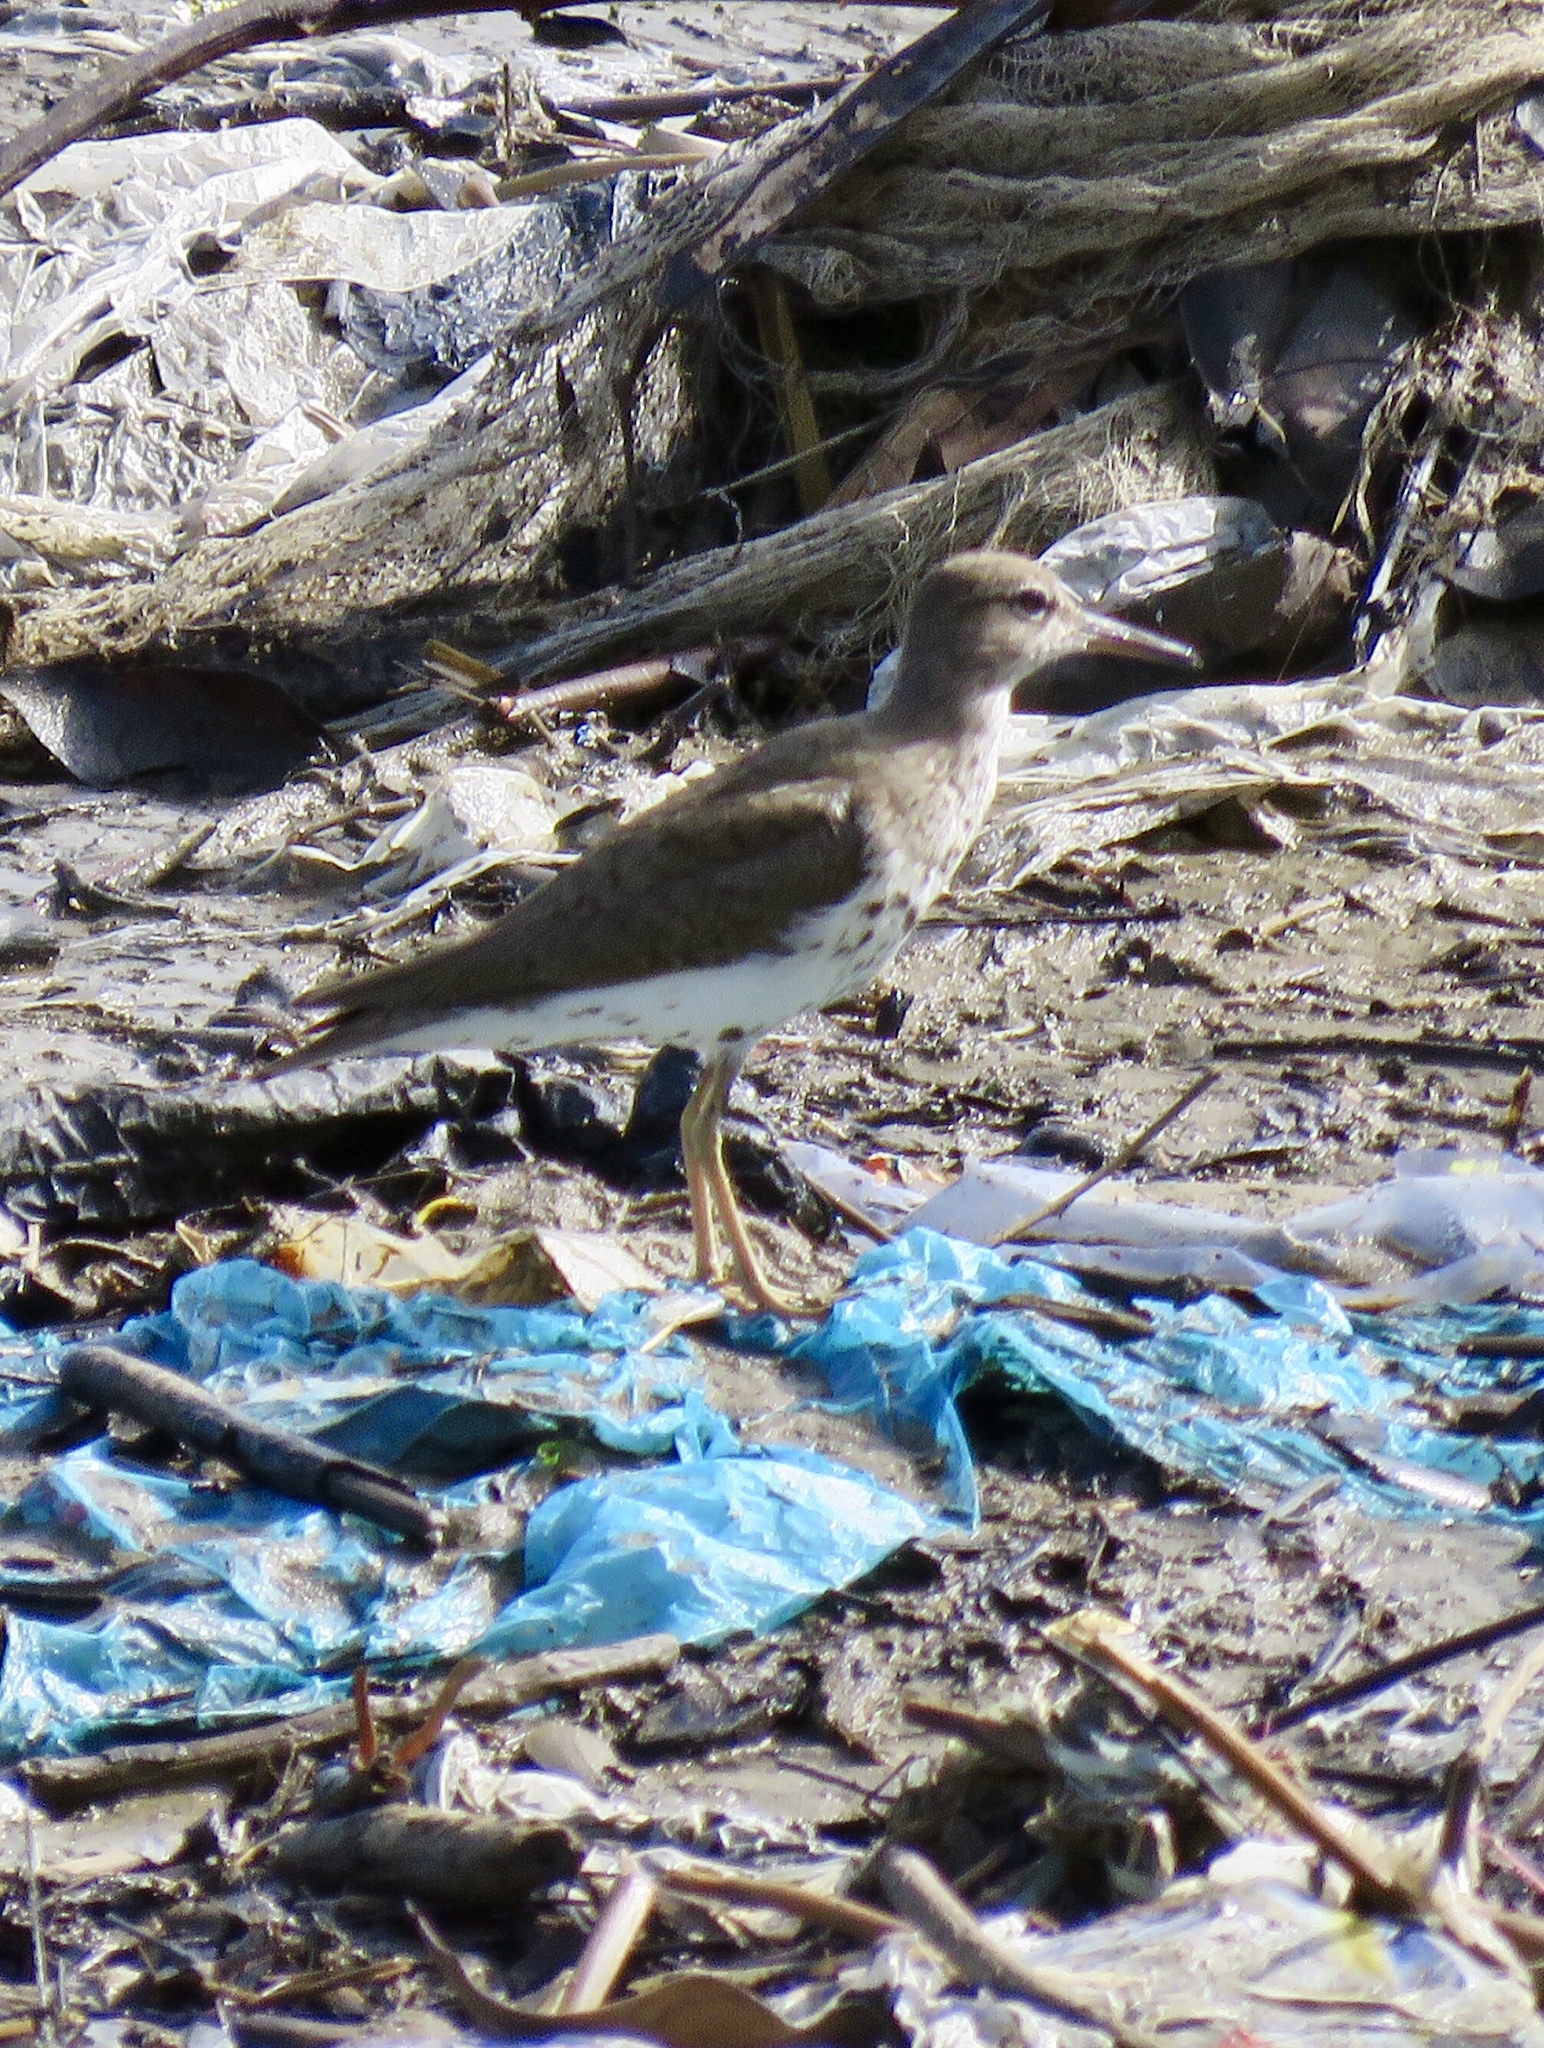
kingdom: Animalia
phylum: Chordata
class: Aves
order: Charadriiformes
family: Scolopacidae
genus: Actitis
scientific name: Actitis macularius
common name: Spotted sandpiper
